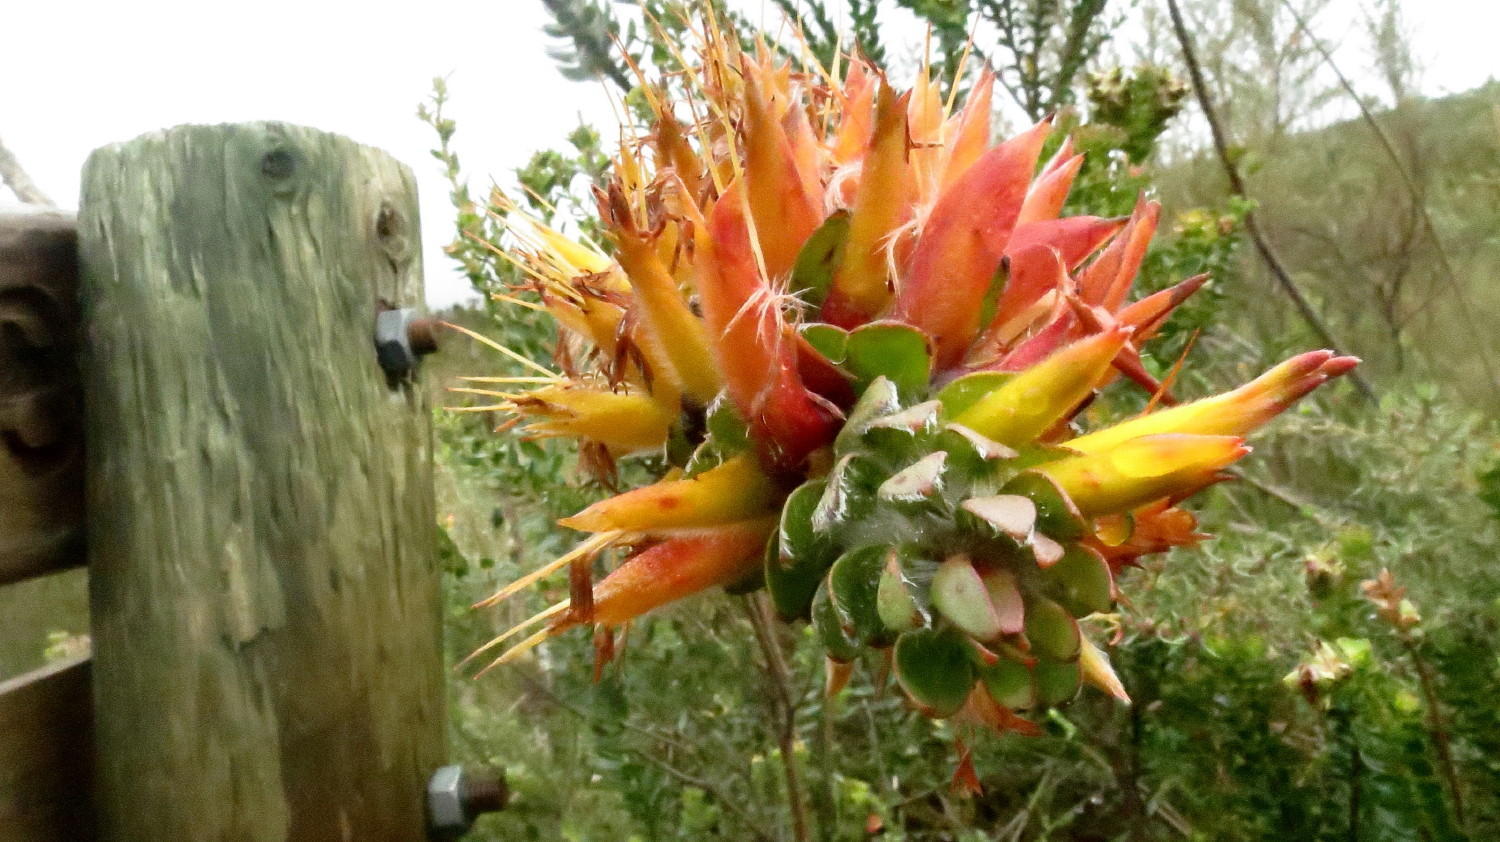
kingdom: Plantae
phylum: Tracheophyta
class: Magnoliopsida
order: Proteales
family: Proteaceae
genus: Mimetes
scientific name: Mimetes pauciflora
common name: Three-flowered pagoda
